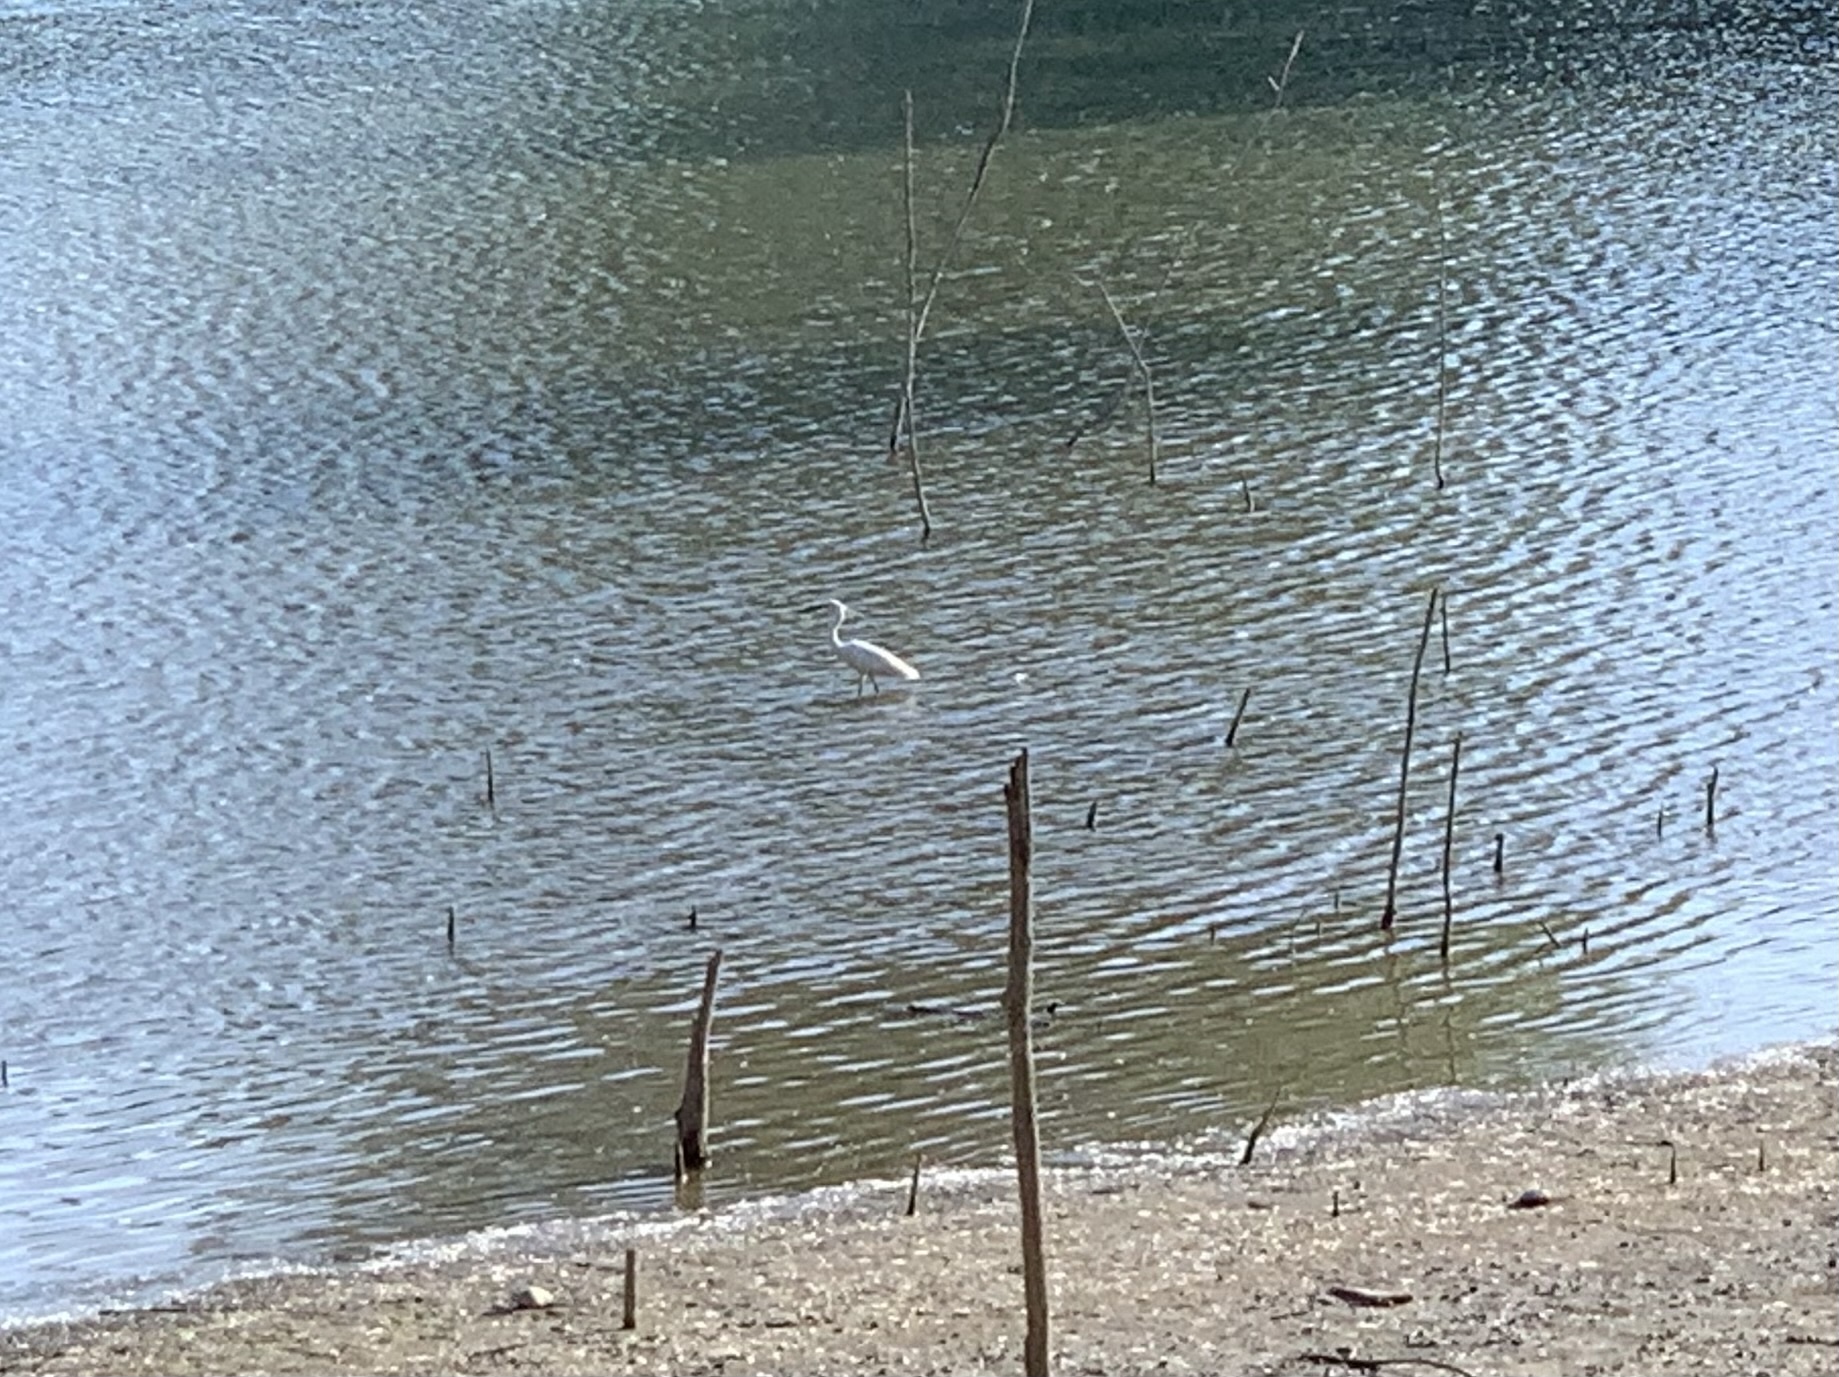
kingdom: Animalia
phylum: Chordata
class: Aves
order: Pelecaniformes
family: Ardeidae
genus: Ardea
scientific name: Ardea alba
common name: Great egret
